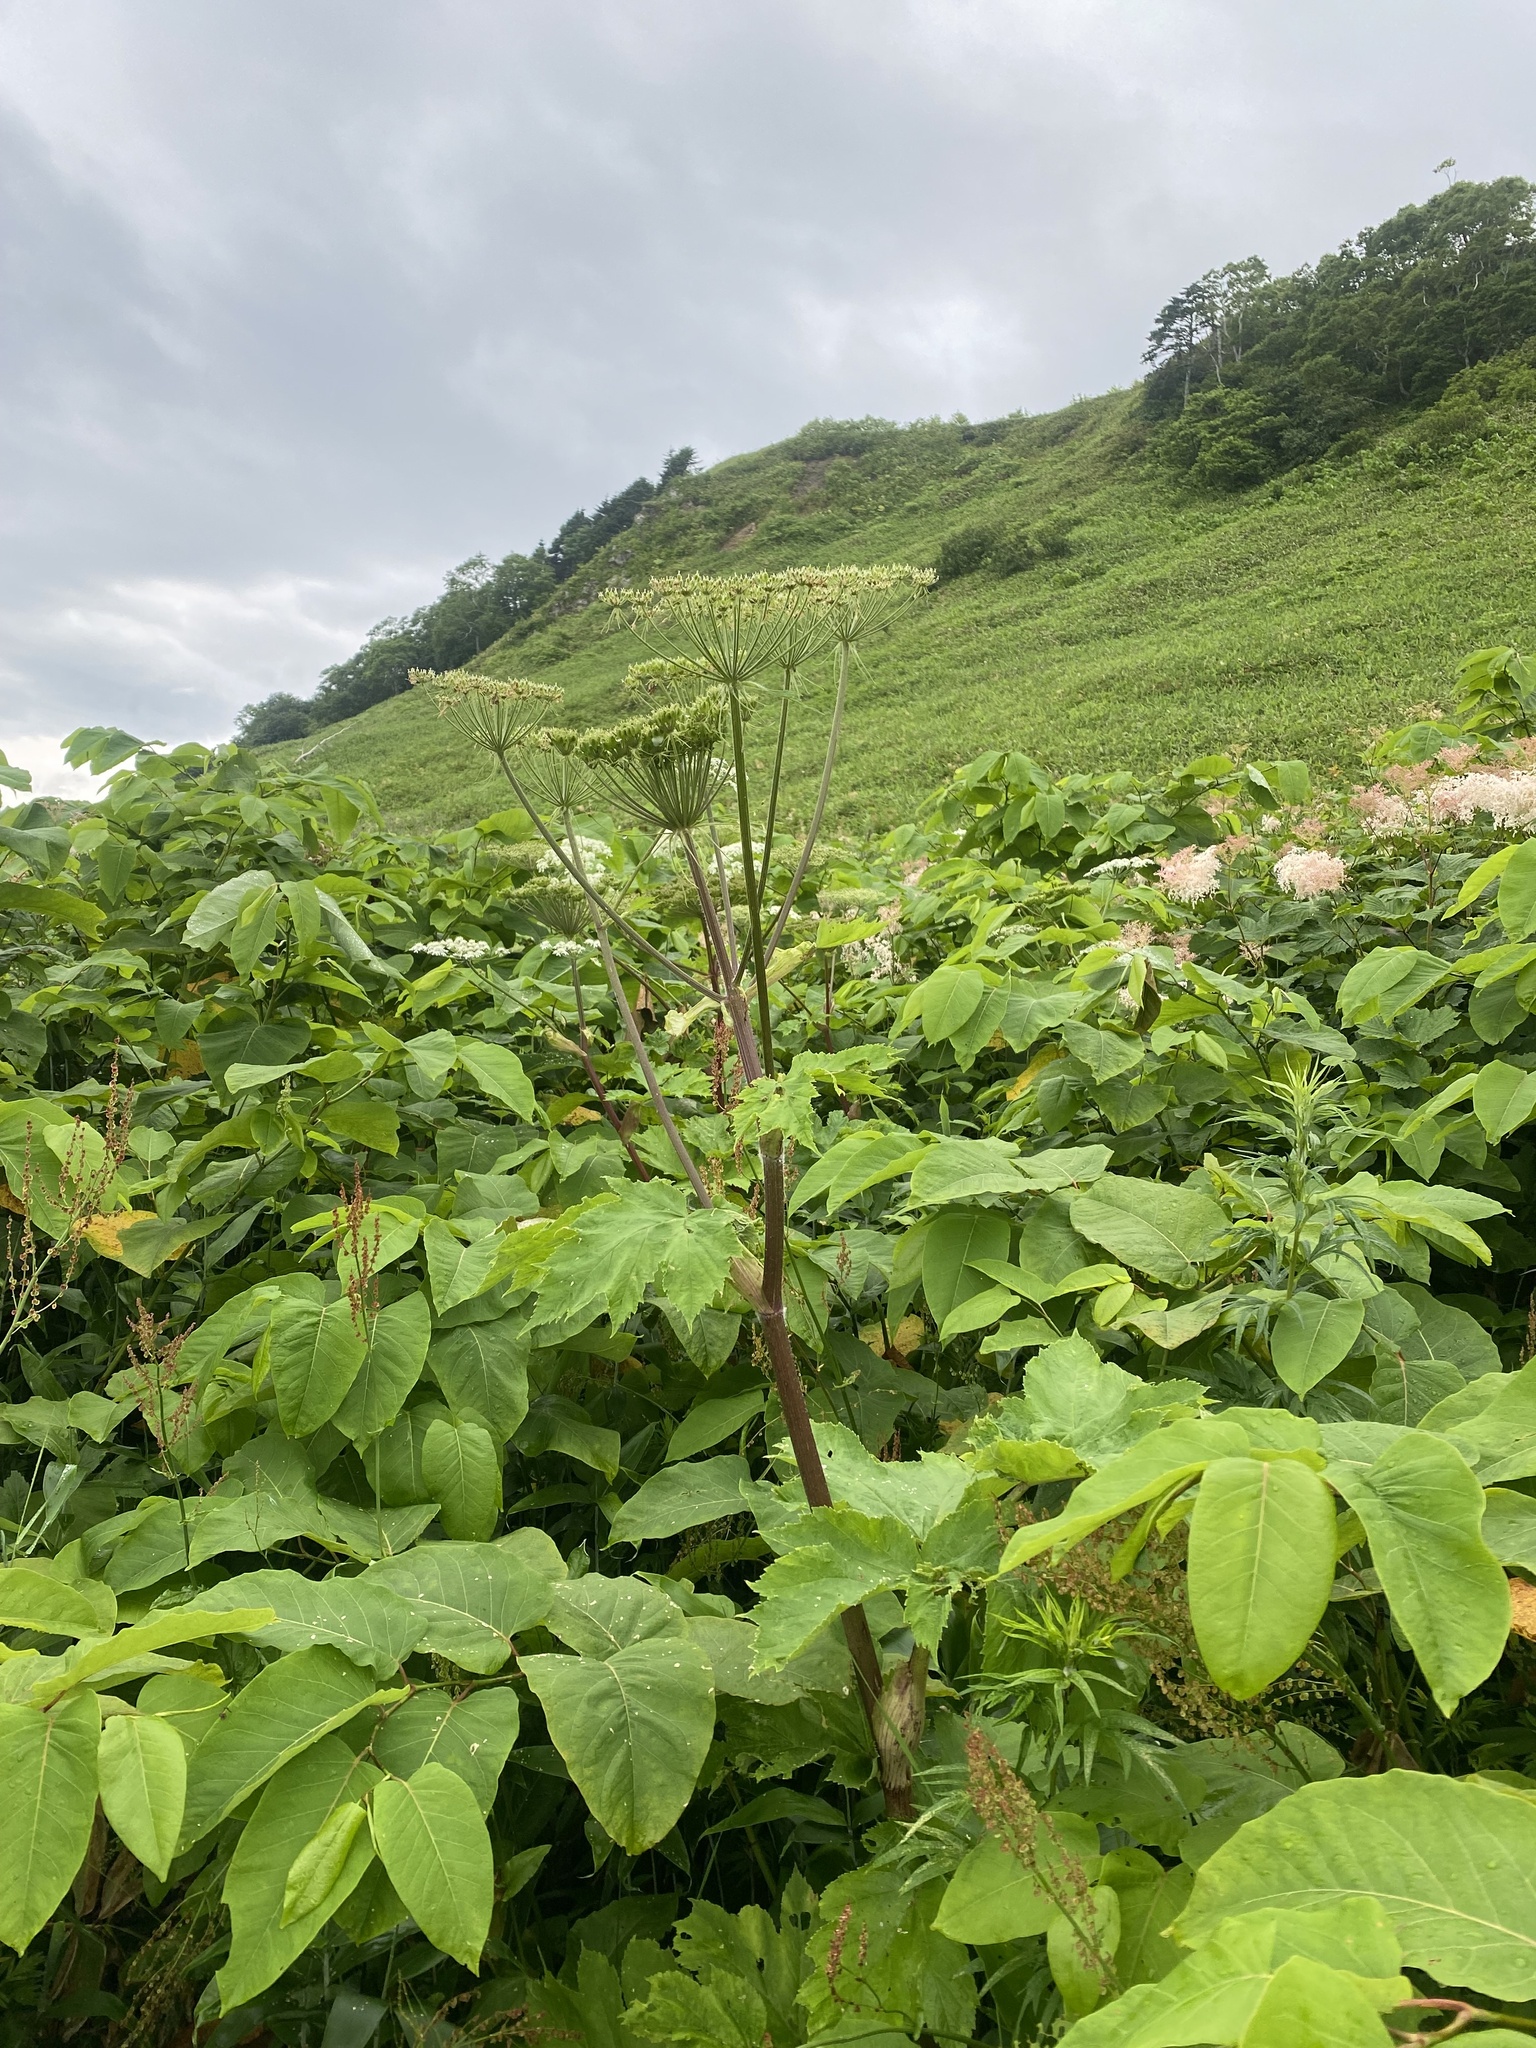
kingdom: Plantae
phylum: Tracheophyta
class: Magnoliopsida
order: Apiales
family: Apiaceae
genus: Heracleum
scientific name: Heracleum maximum
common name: American cow parsnip
